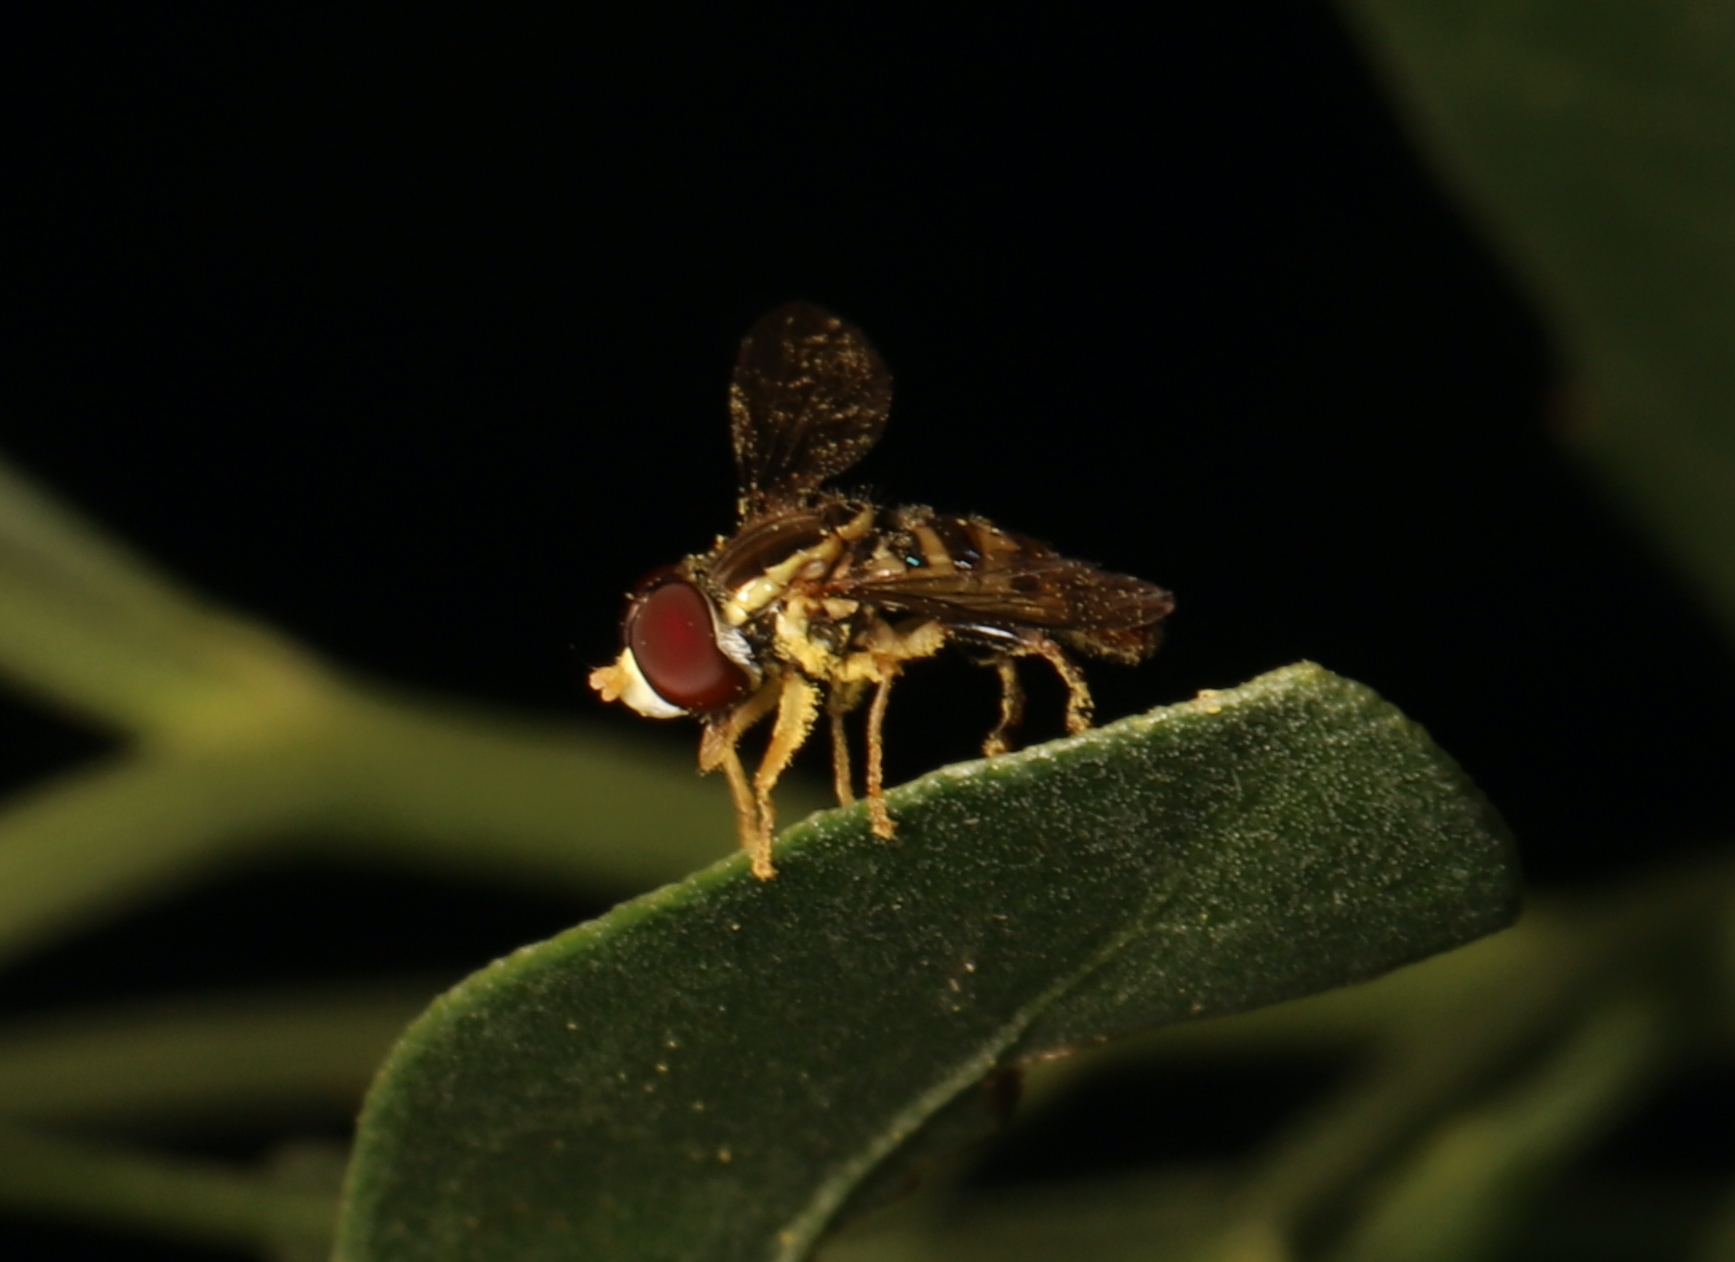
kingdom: Animalia
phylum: Arthropoda
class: Insecta
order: Diptera
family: Syrphidae
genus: Toxomerus
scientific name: Toxomerus geminatus
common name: Eastern calligrapher
